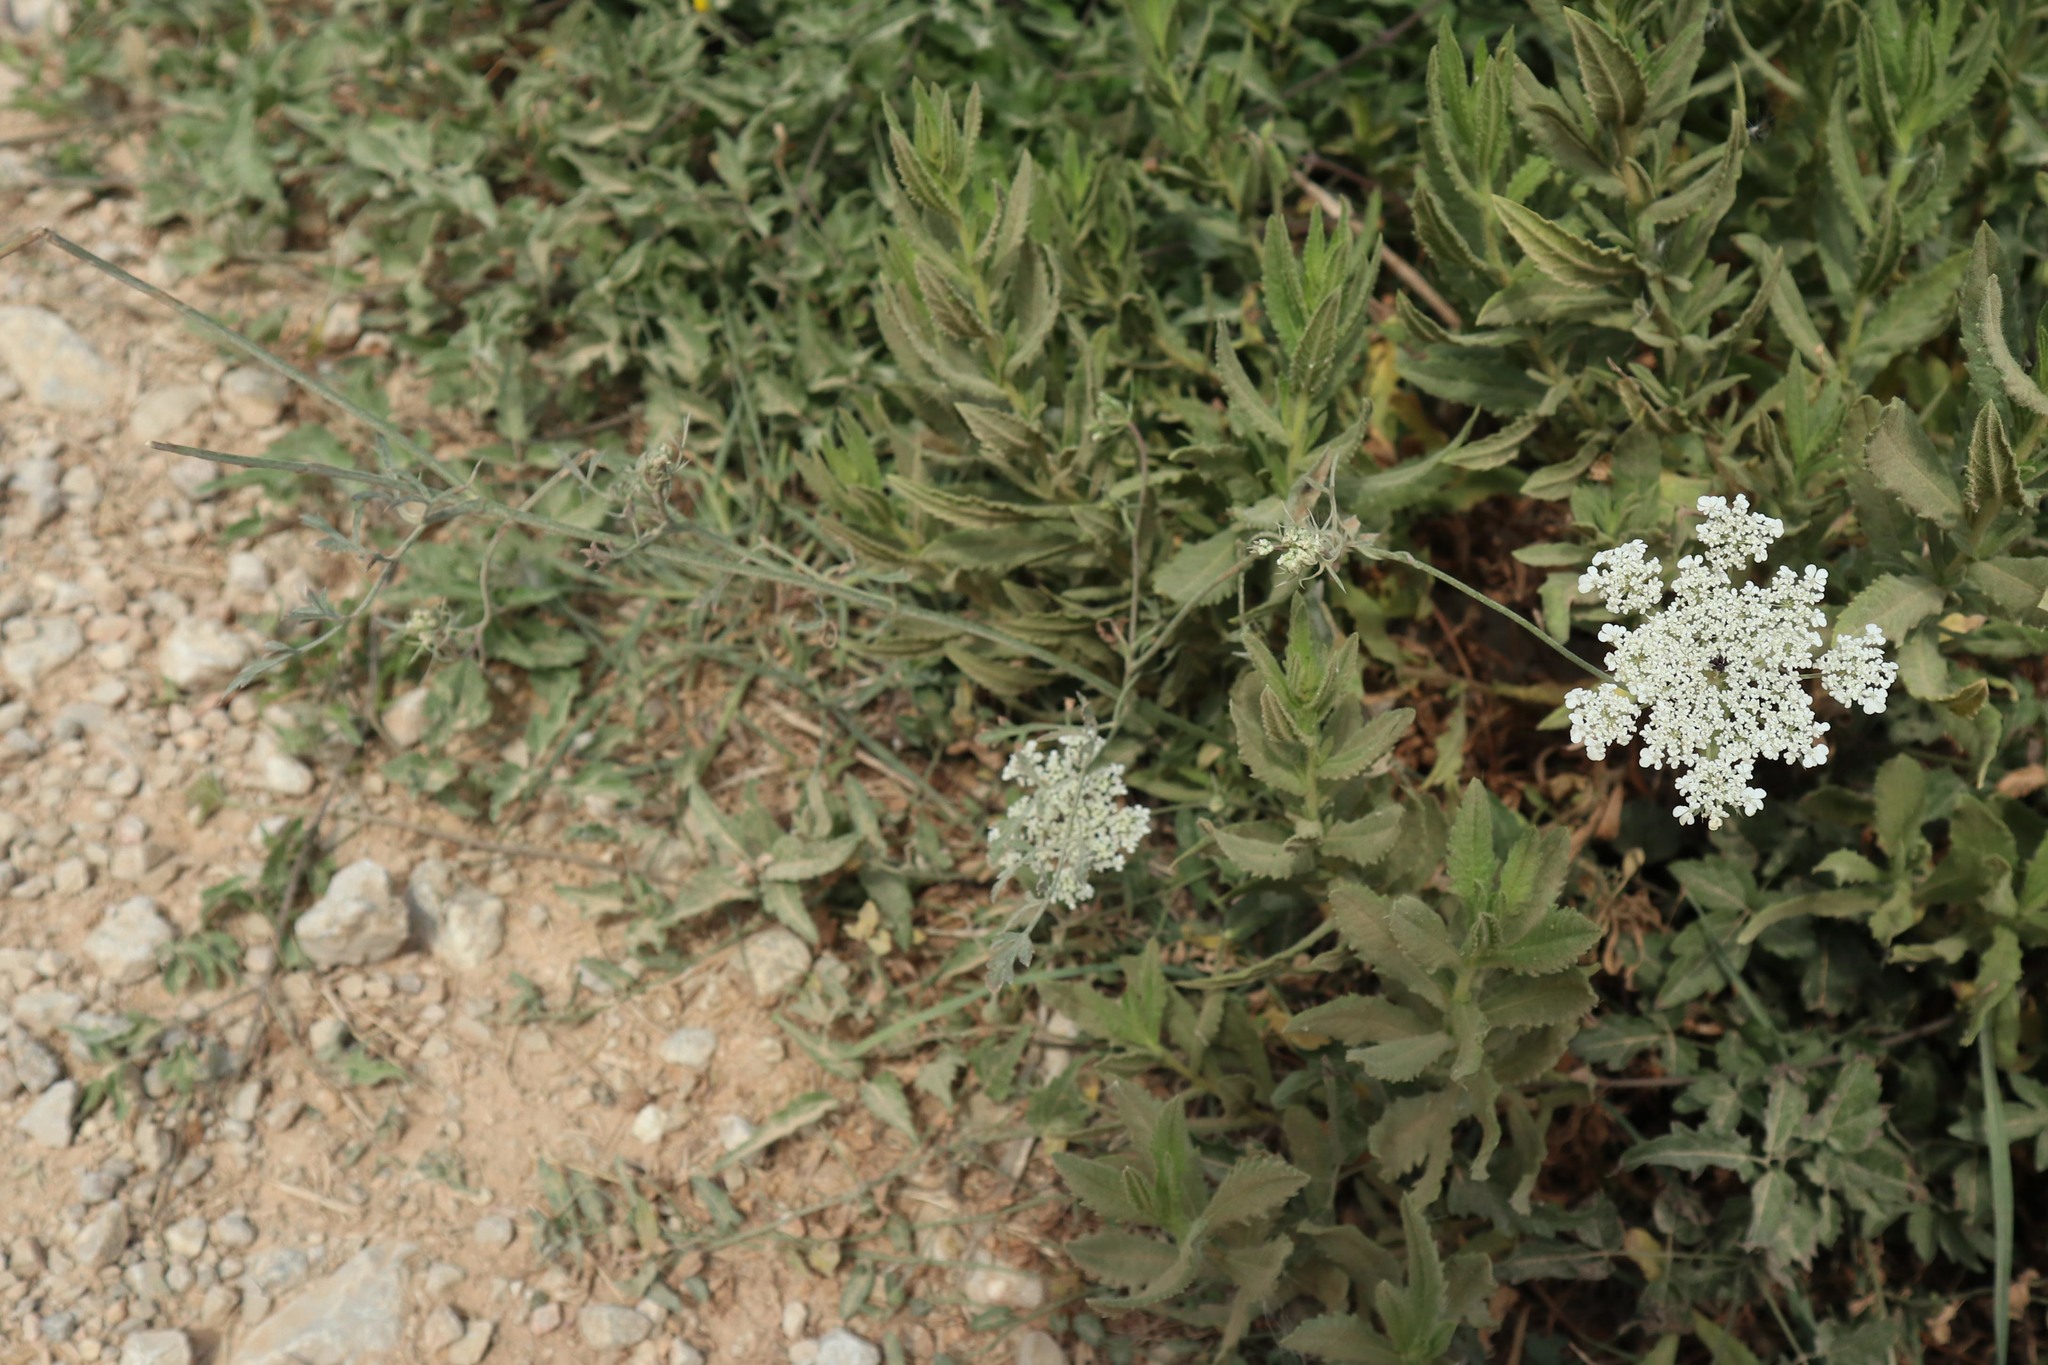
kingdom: Plantae
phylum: Tracheophyta
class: Magnoliopsida
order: Apiales
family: Apiaceae
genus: Daucus
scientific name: Daucus carota
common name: Wild carrot
